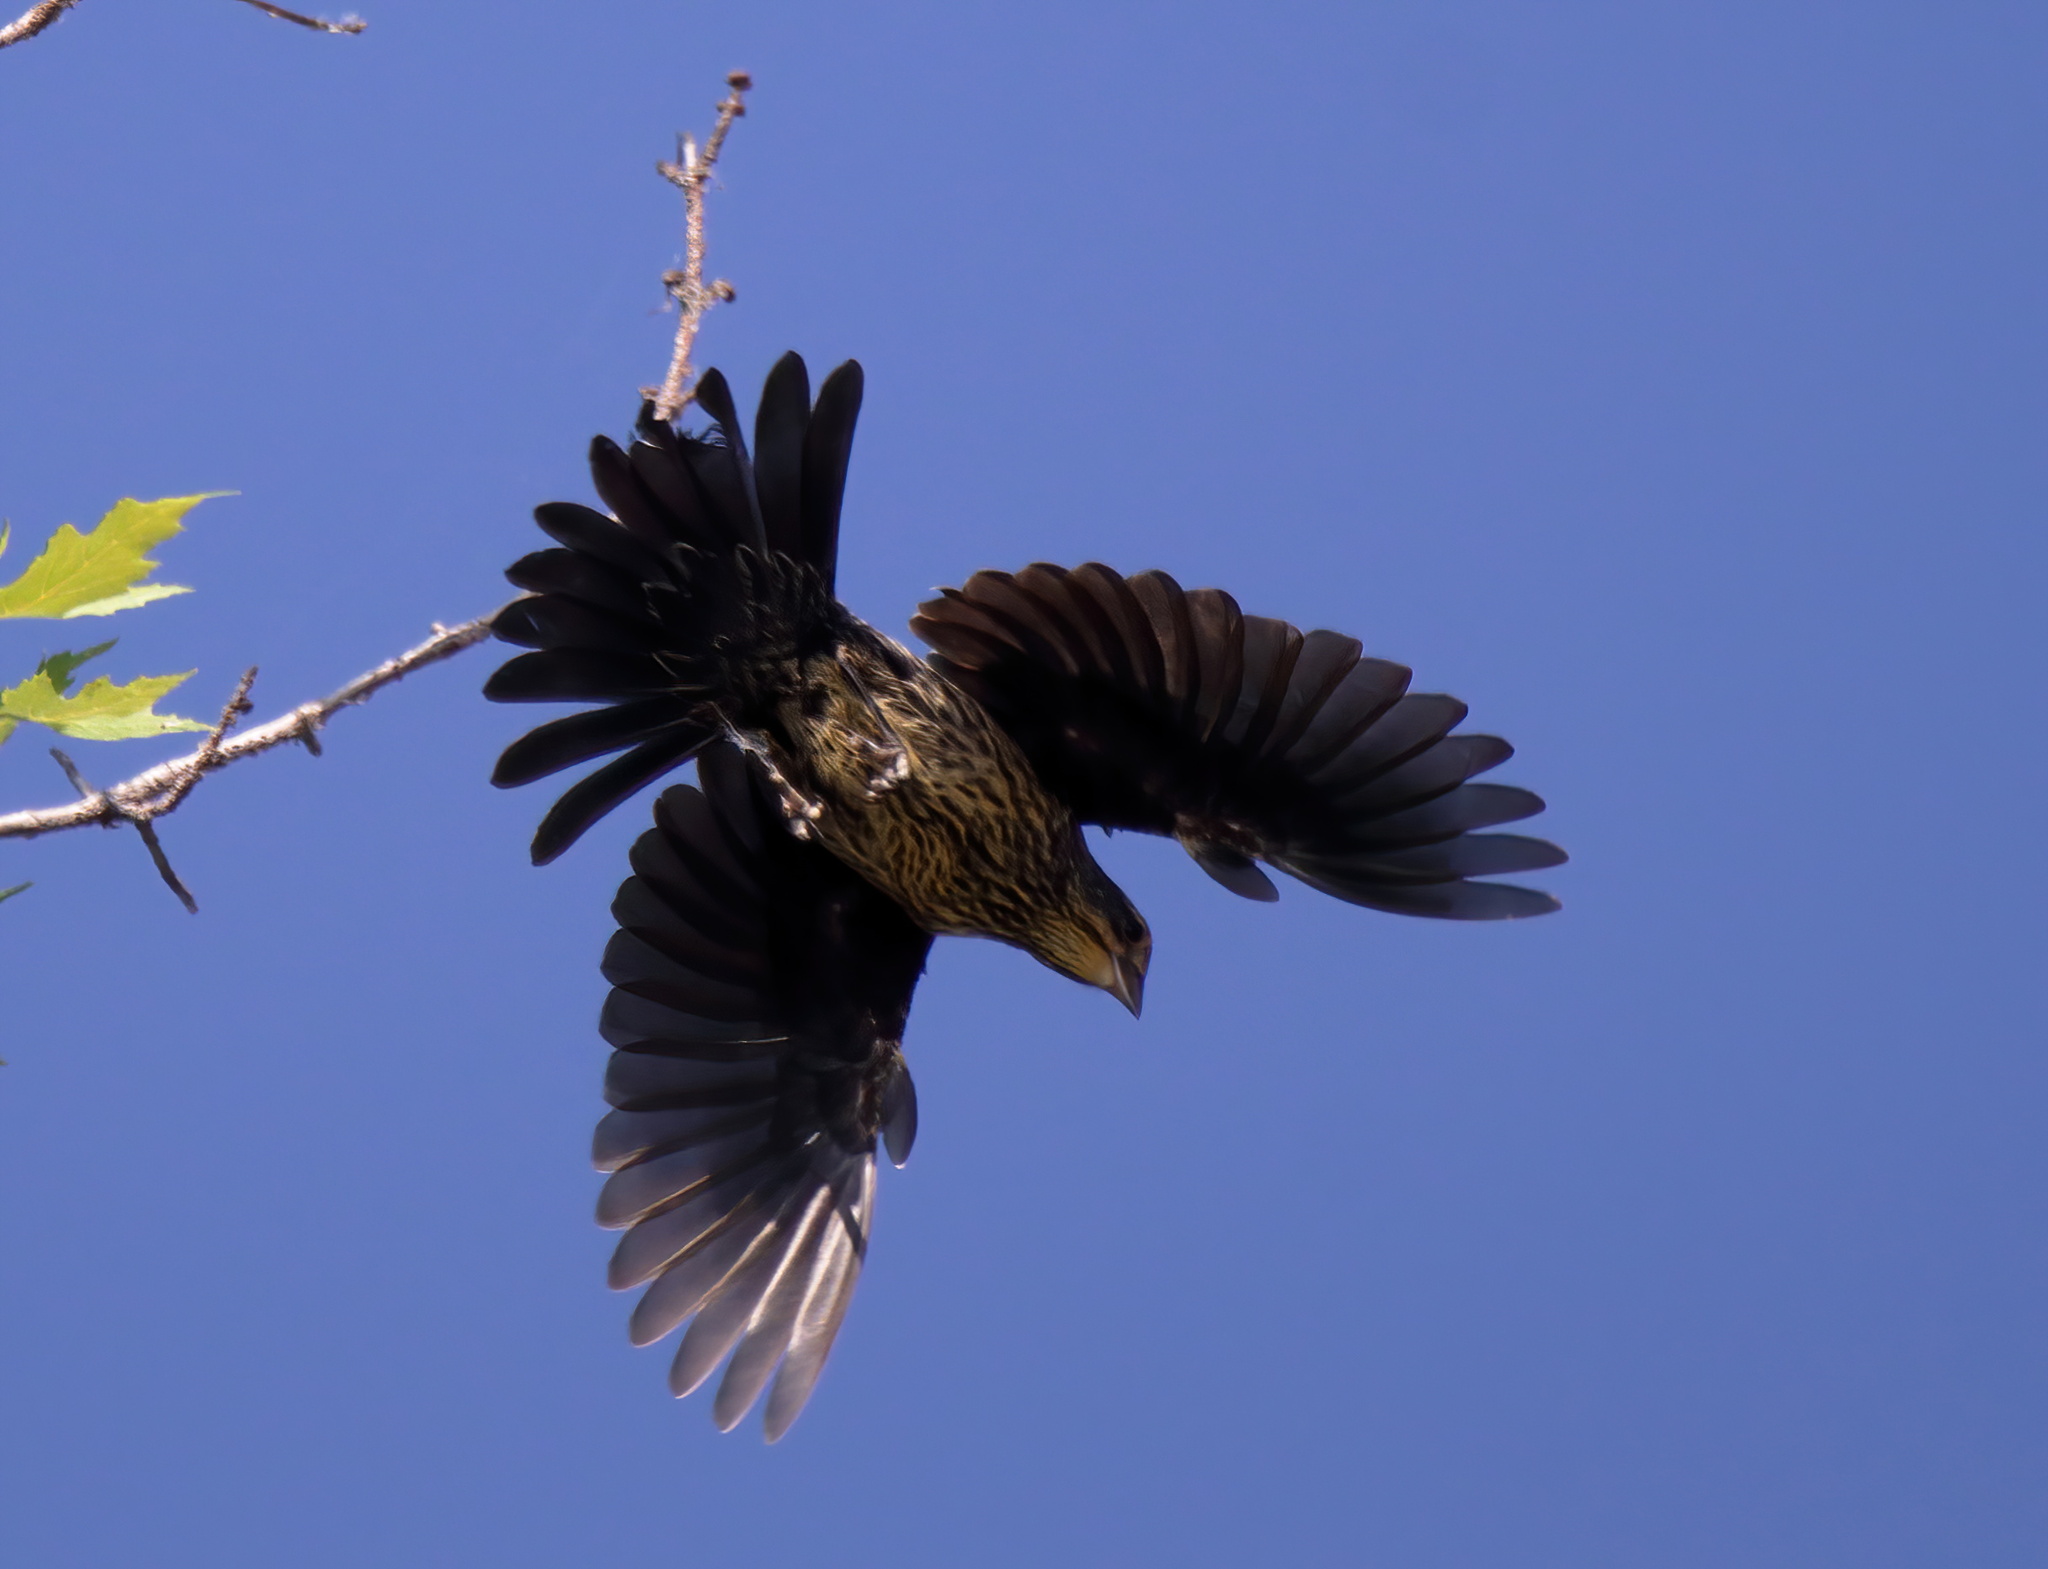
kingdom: Animalia
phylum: Chordata
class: Aves
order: Passeriformes
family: Icteridae
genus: Agelaius
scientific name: Agelaius phoeniceus
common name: Red-winged blackbird
